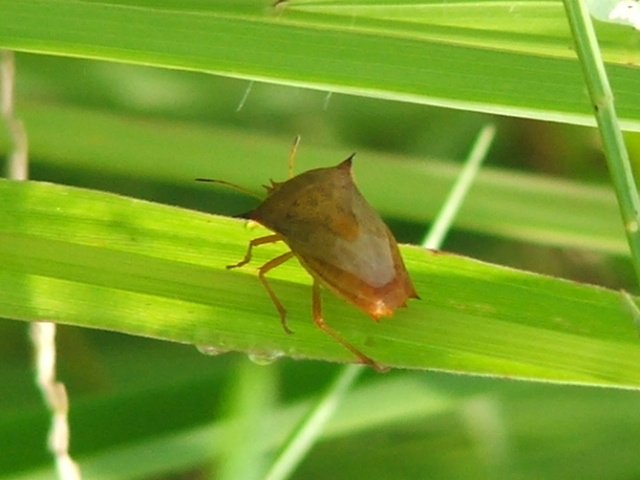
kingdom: Animalia
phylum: Arthropoda
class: Insecta
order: Hemiptera
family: Pentatomidae
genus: Diploxys
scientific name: Diploxys fallax
